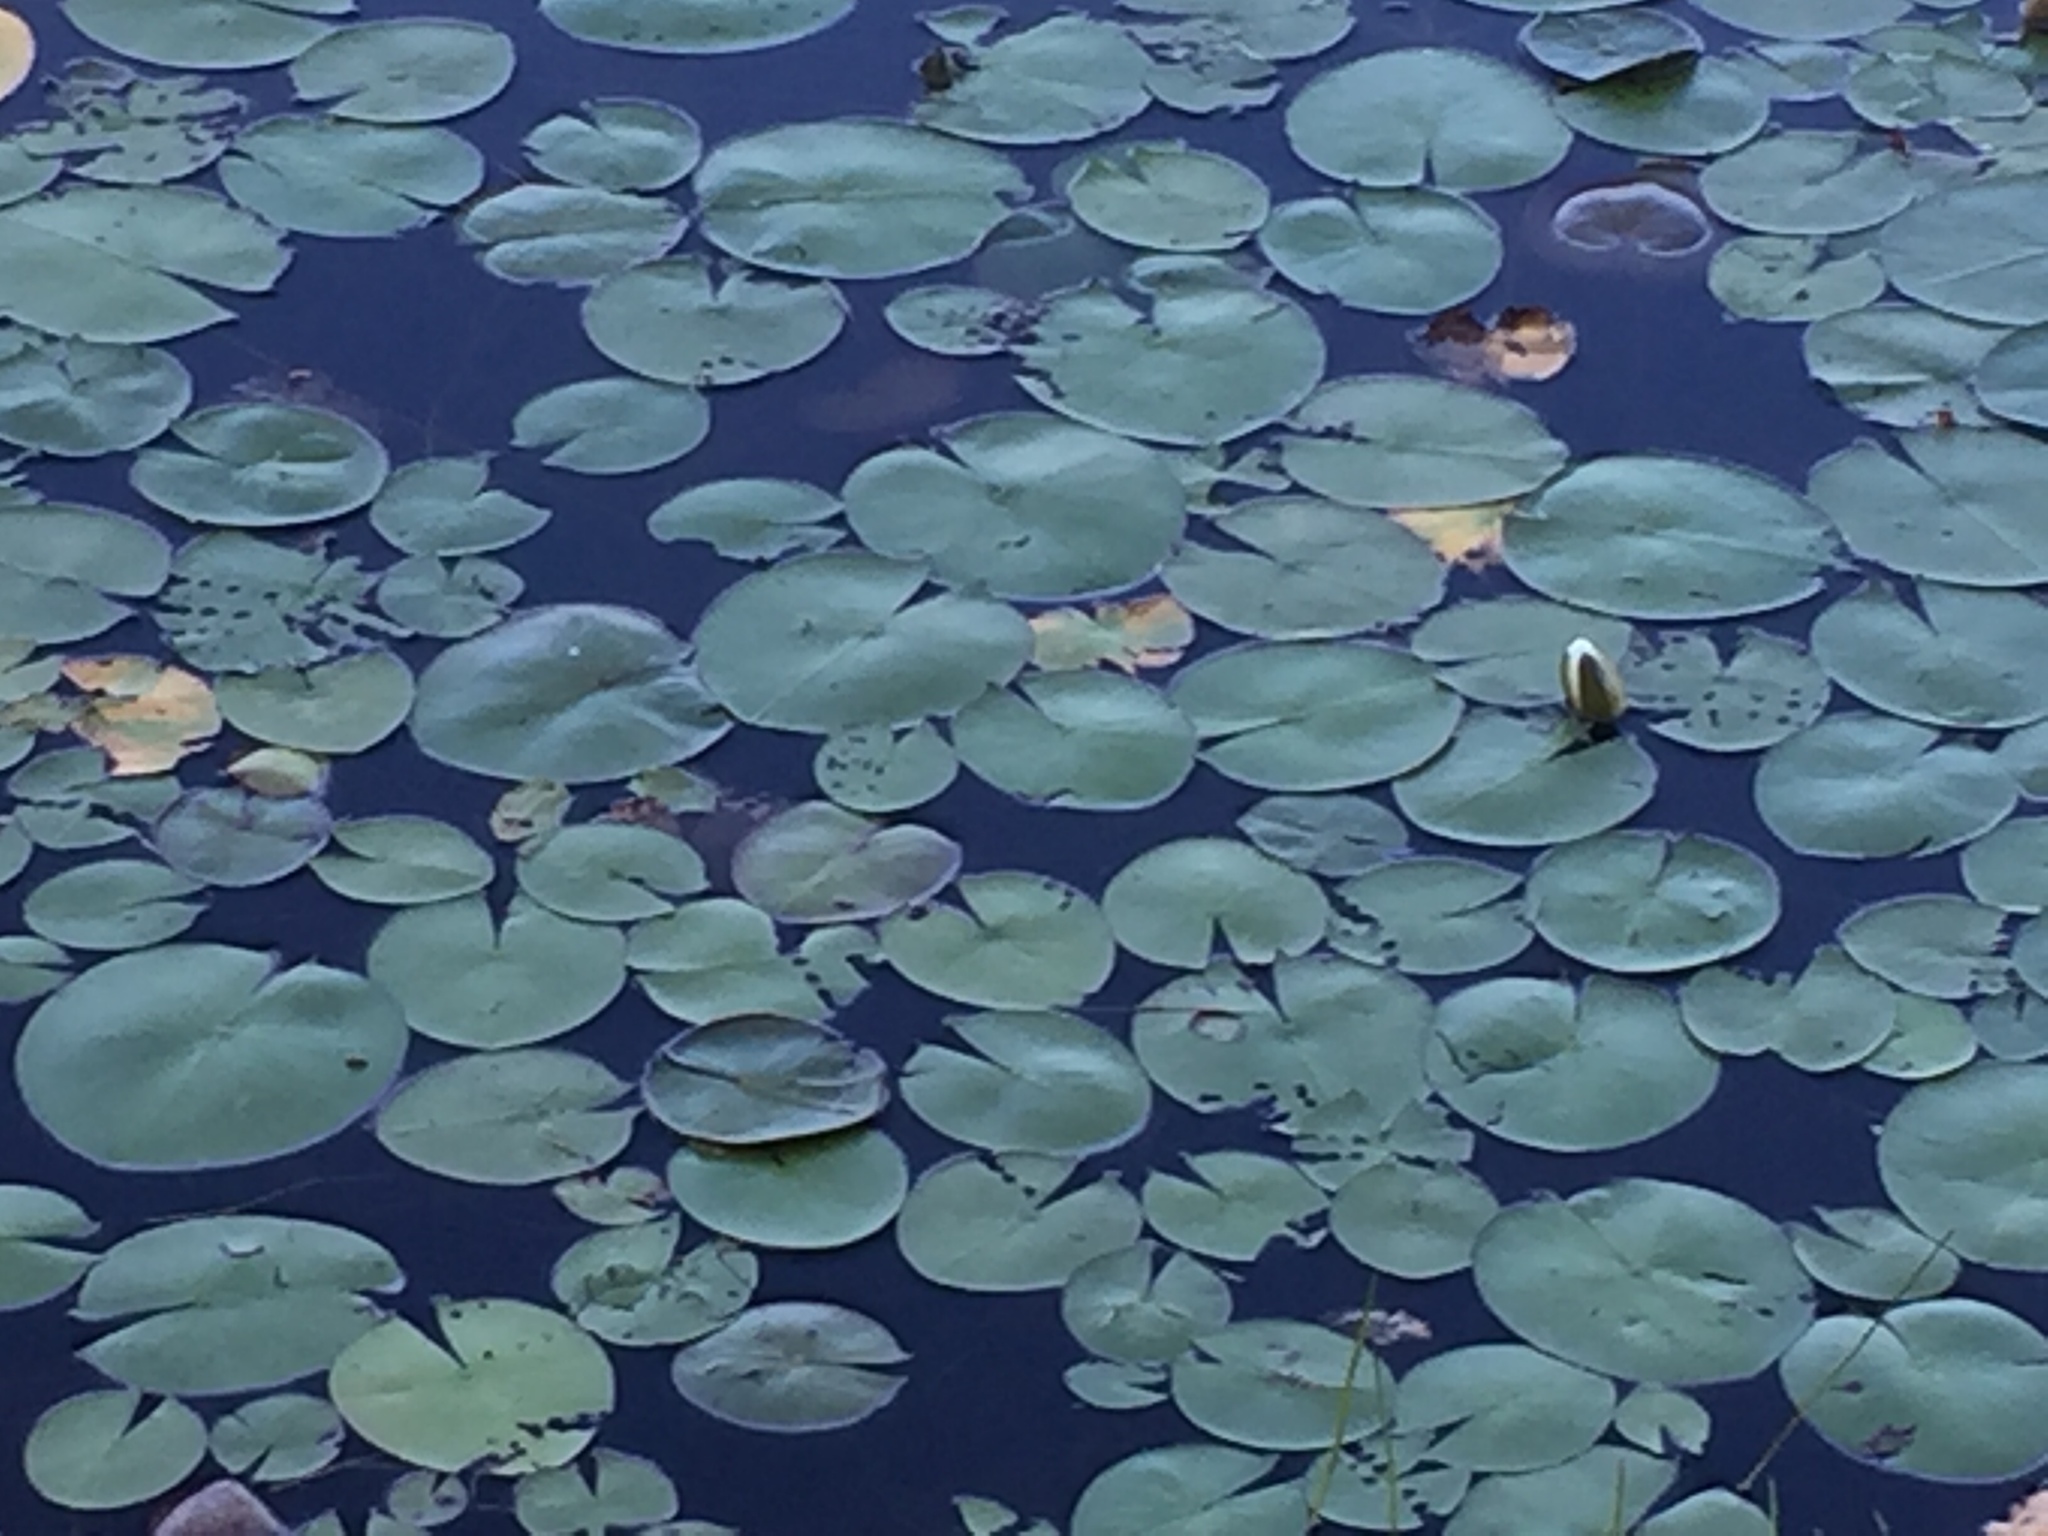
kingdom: Plantae
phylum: Tracheophyta
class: Magnoliopsida
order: Nymphaeales
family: Nymphaeaceae
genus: Nymphaea
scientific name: Nymphaea odorata
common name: Fragrant water-lily
